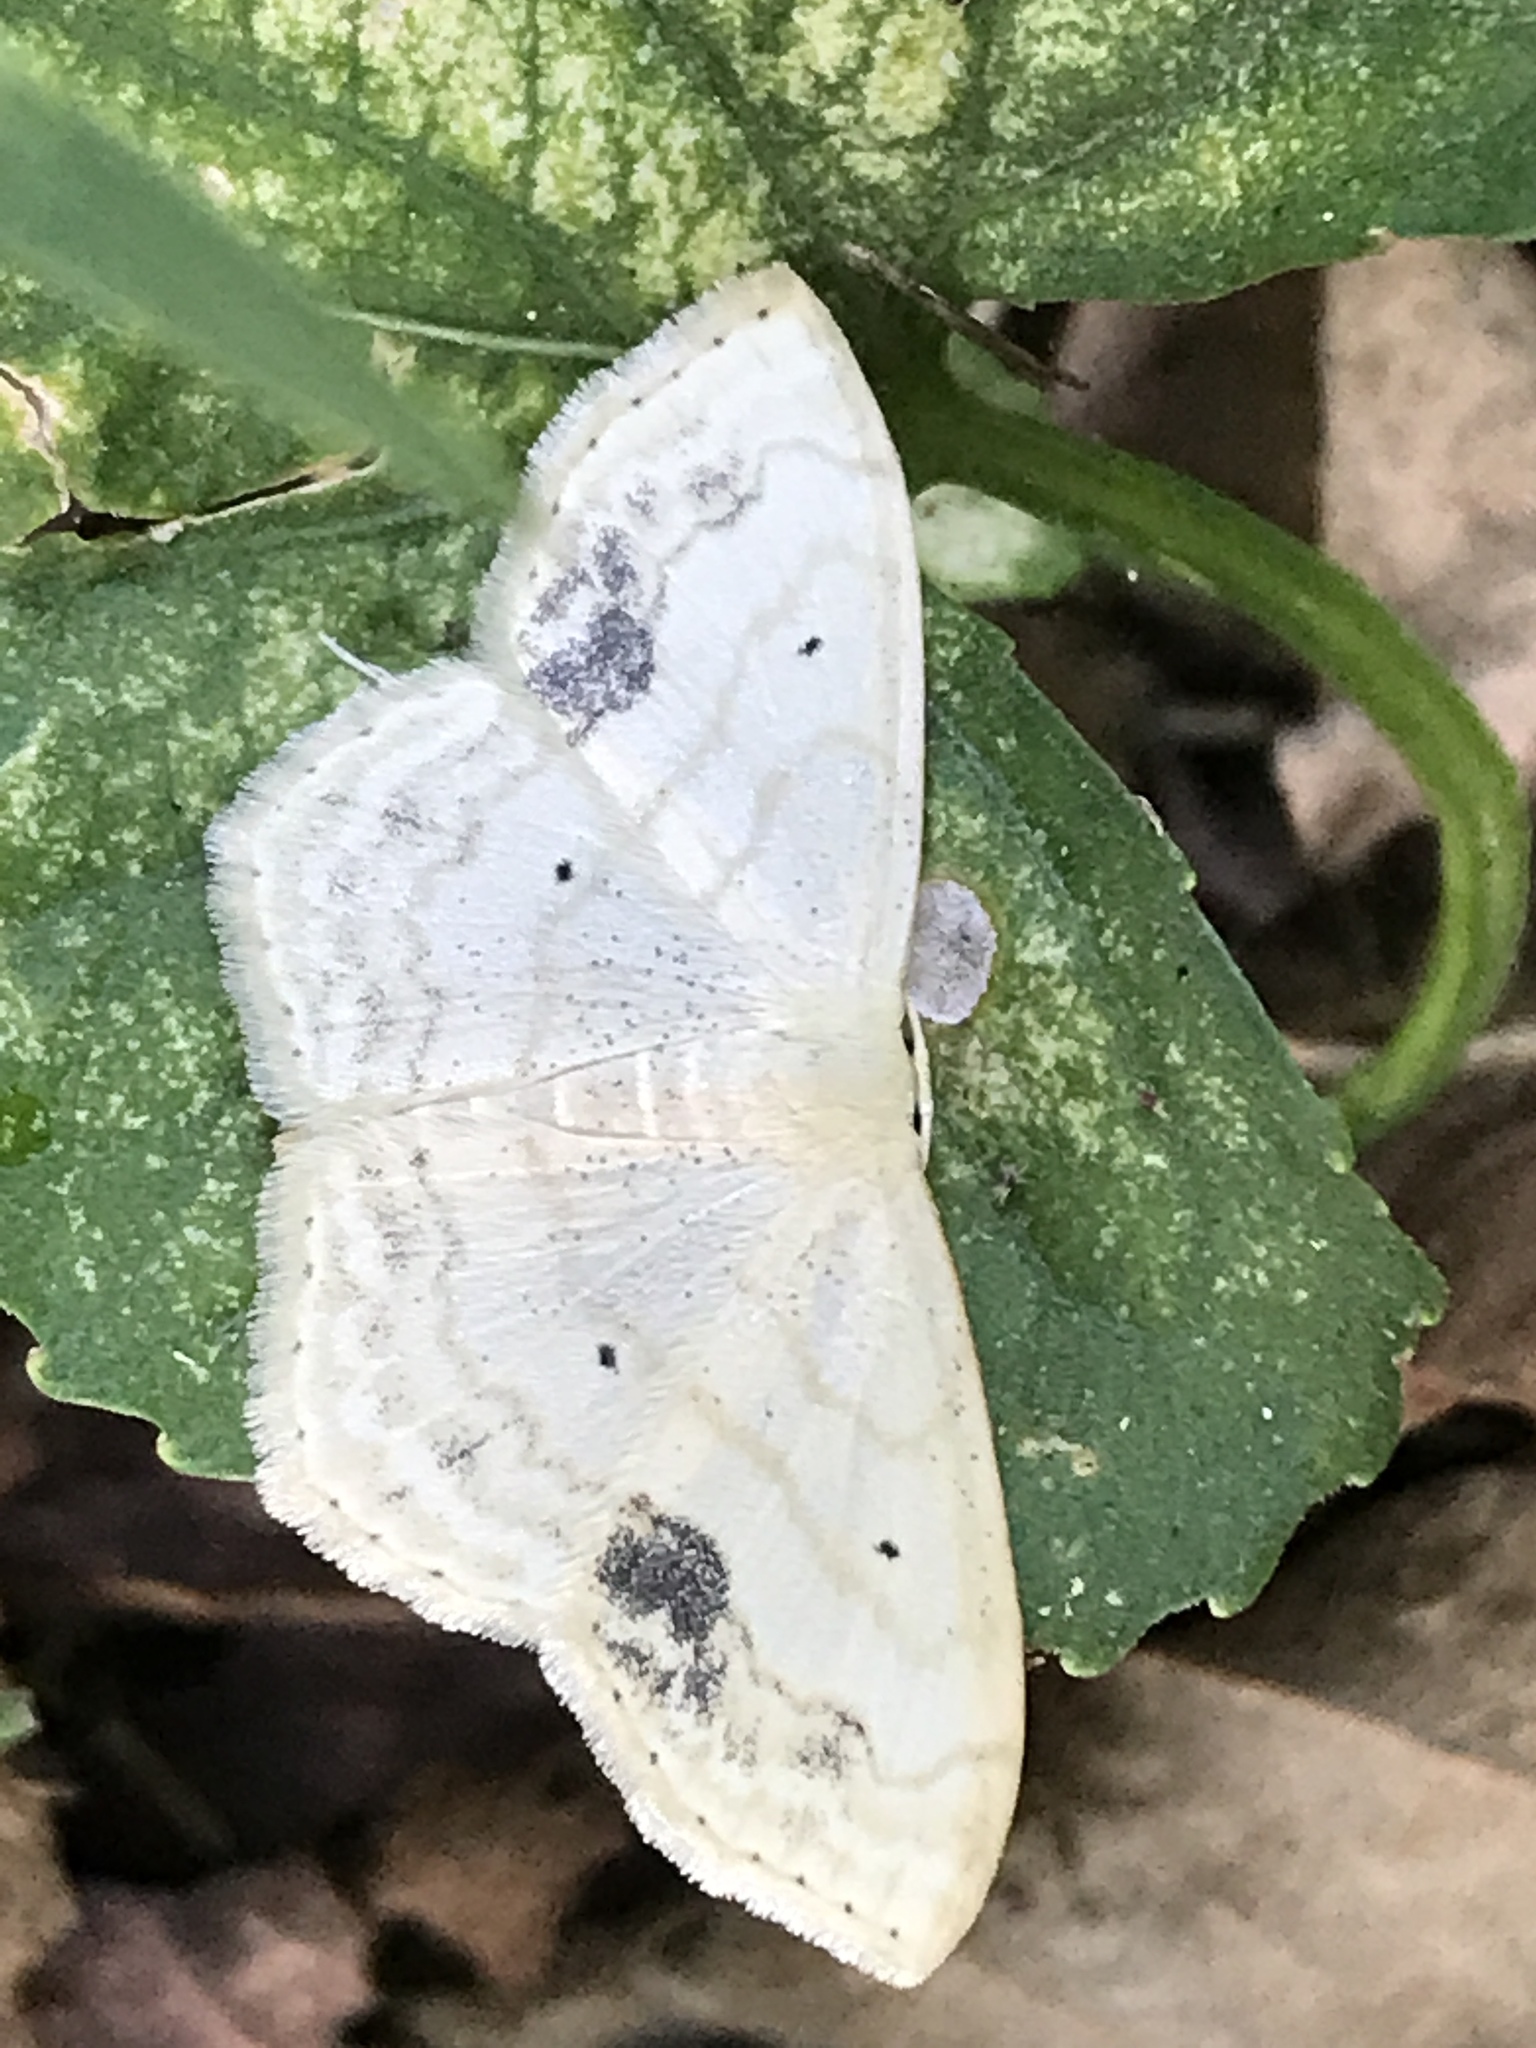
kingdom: Animalia
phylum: Arthropoda
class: Insecta
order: Lepidoptera
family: Geometridae
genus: Scopula
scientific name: Scopula limboundata
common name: Large lace border
